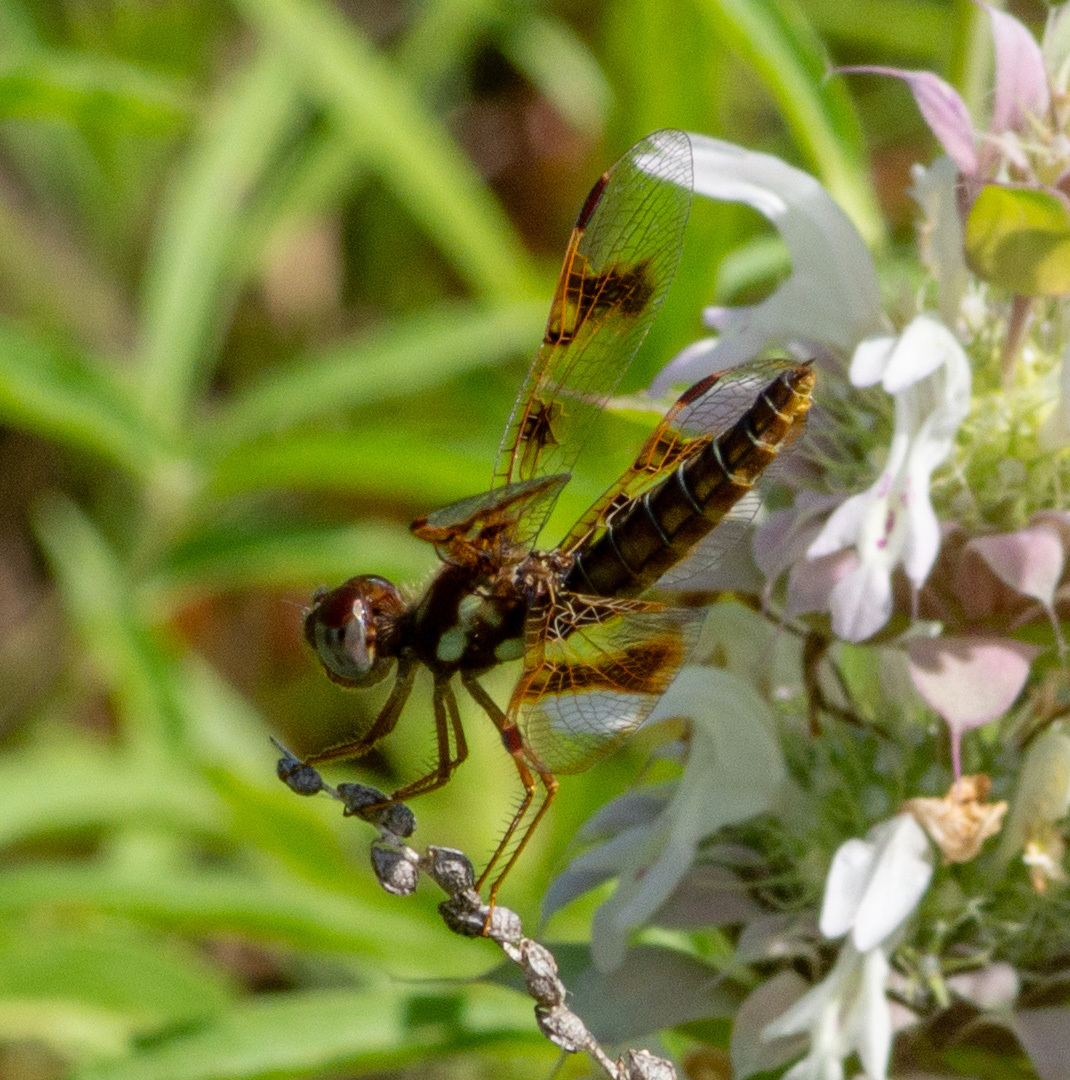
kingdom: Animalia
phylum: Arthropoda
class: Insecta
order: Odonata
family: Libellulidae
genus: Perithemis
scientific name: Perithemis tenera
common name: Eastern amberwing
